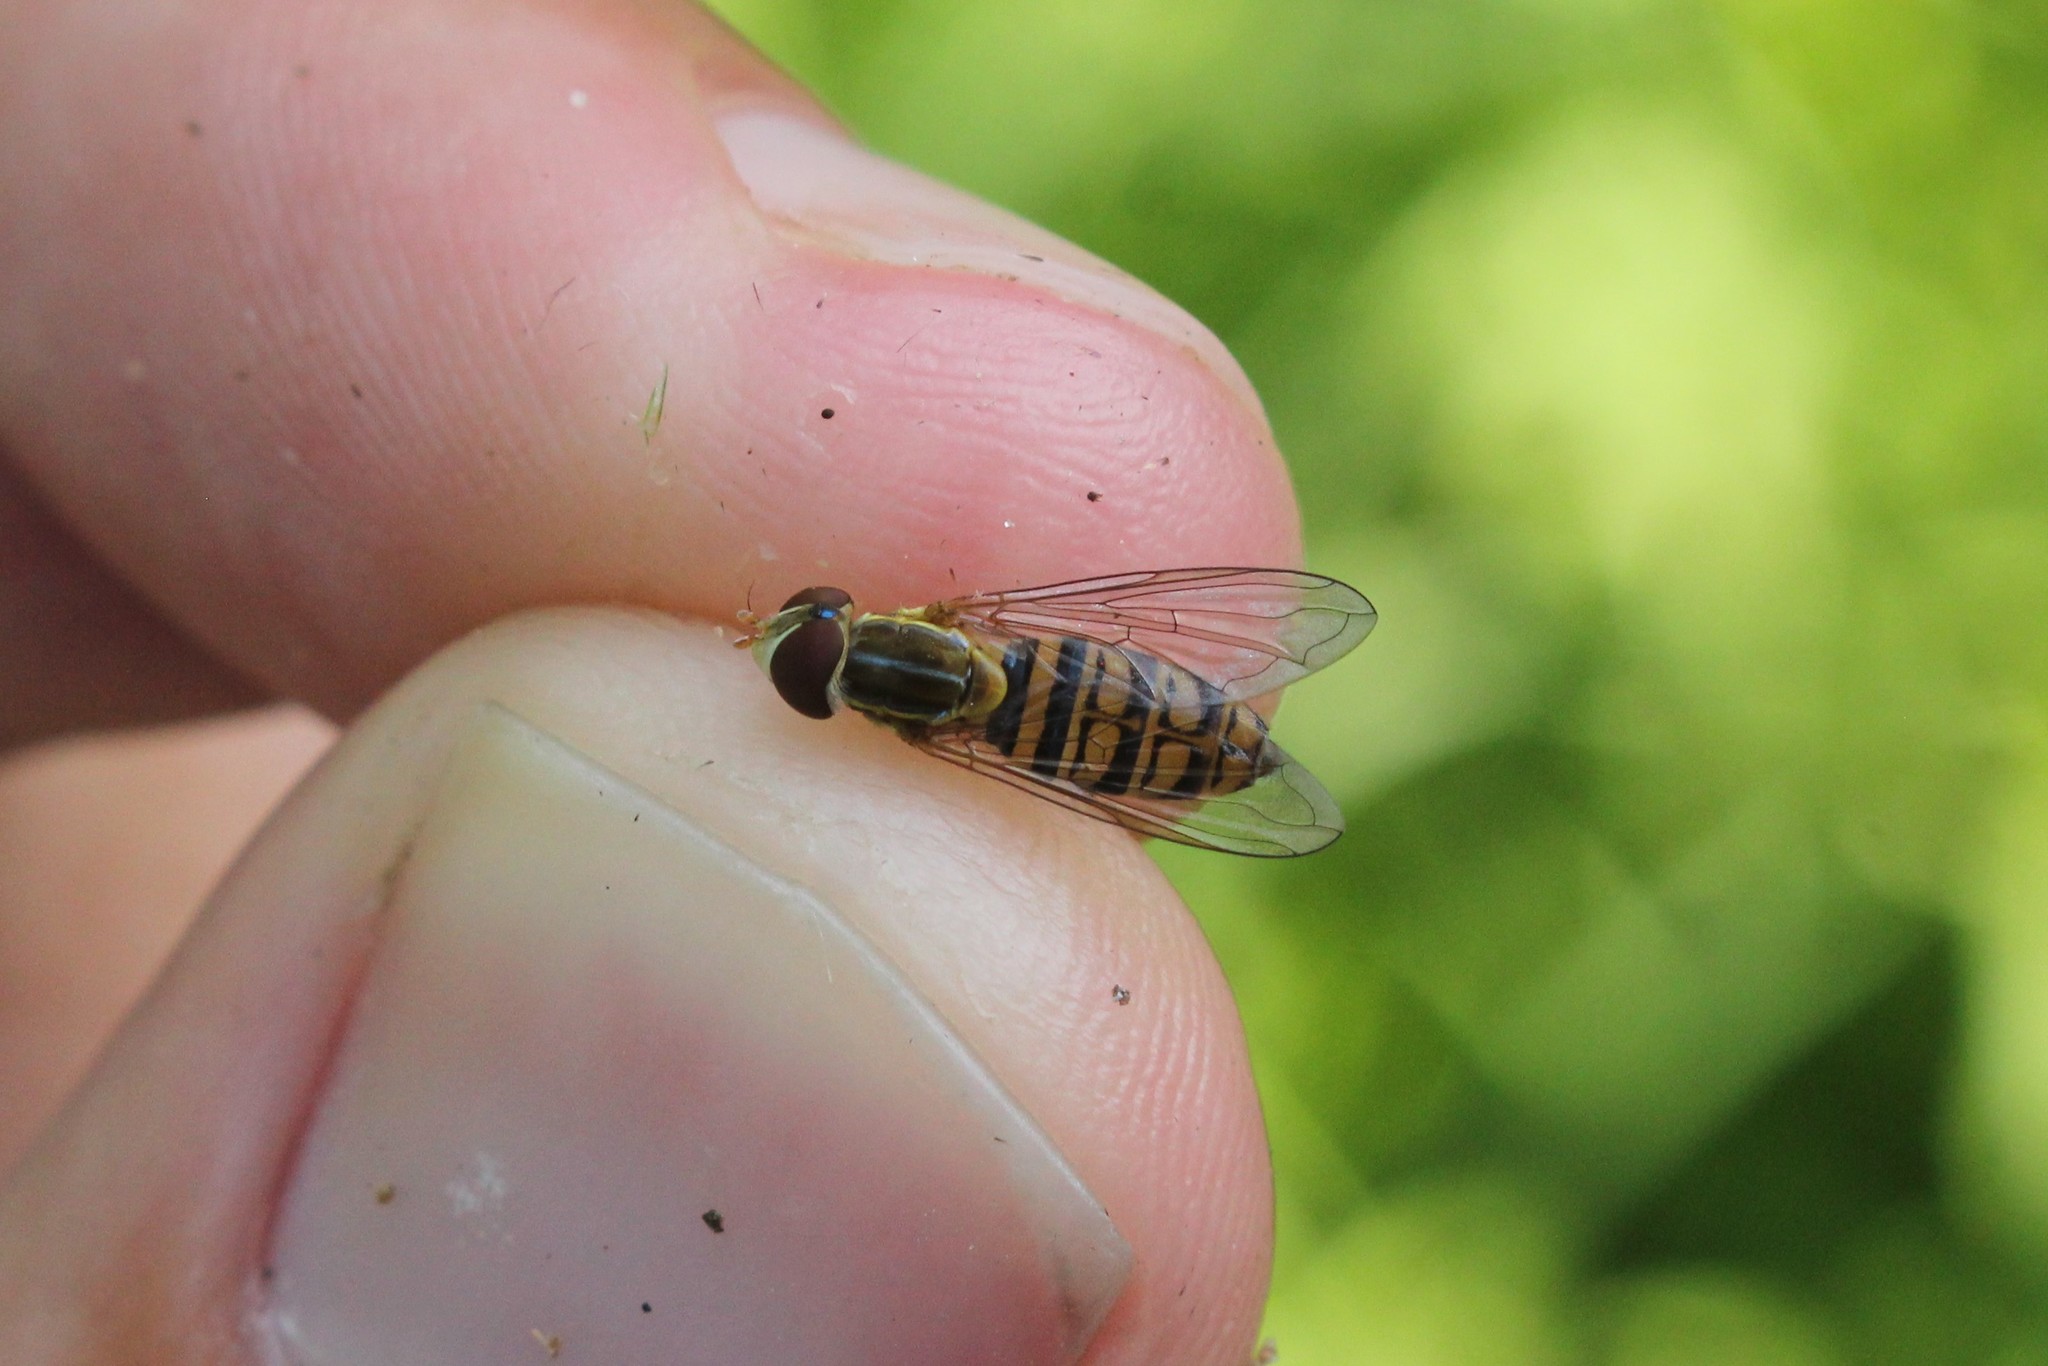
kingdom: Animalia
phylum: Arthropoda
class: Insecta
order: Diptera
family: Syrphidae
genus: Toxomerus
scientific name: Toxomerus politus
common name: Maize calligrapher
